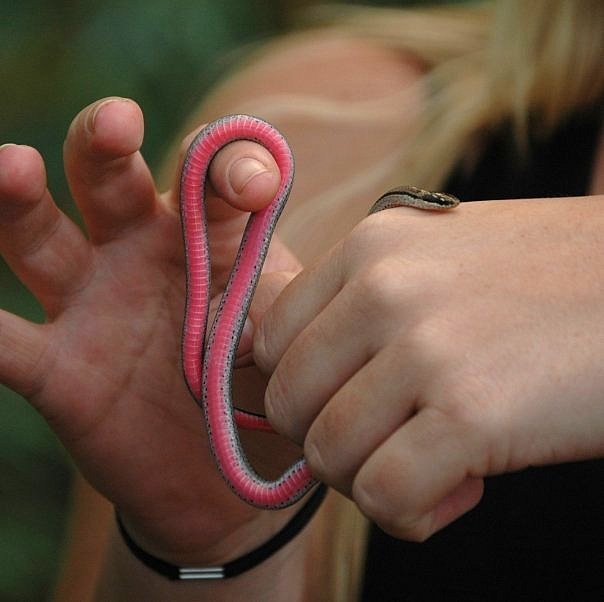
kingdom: Animalia
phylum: Chordata
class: Squamata
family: Pseudoxyrhophiidae
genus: Liophidium
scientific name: Liophidium rhodogaster
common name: Gold-collared snake
